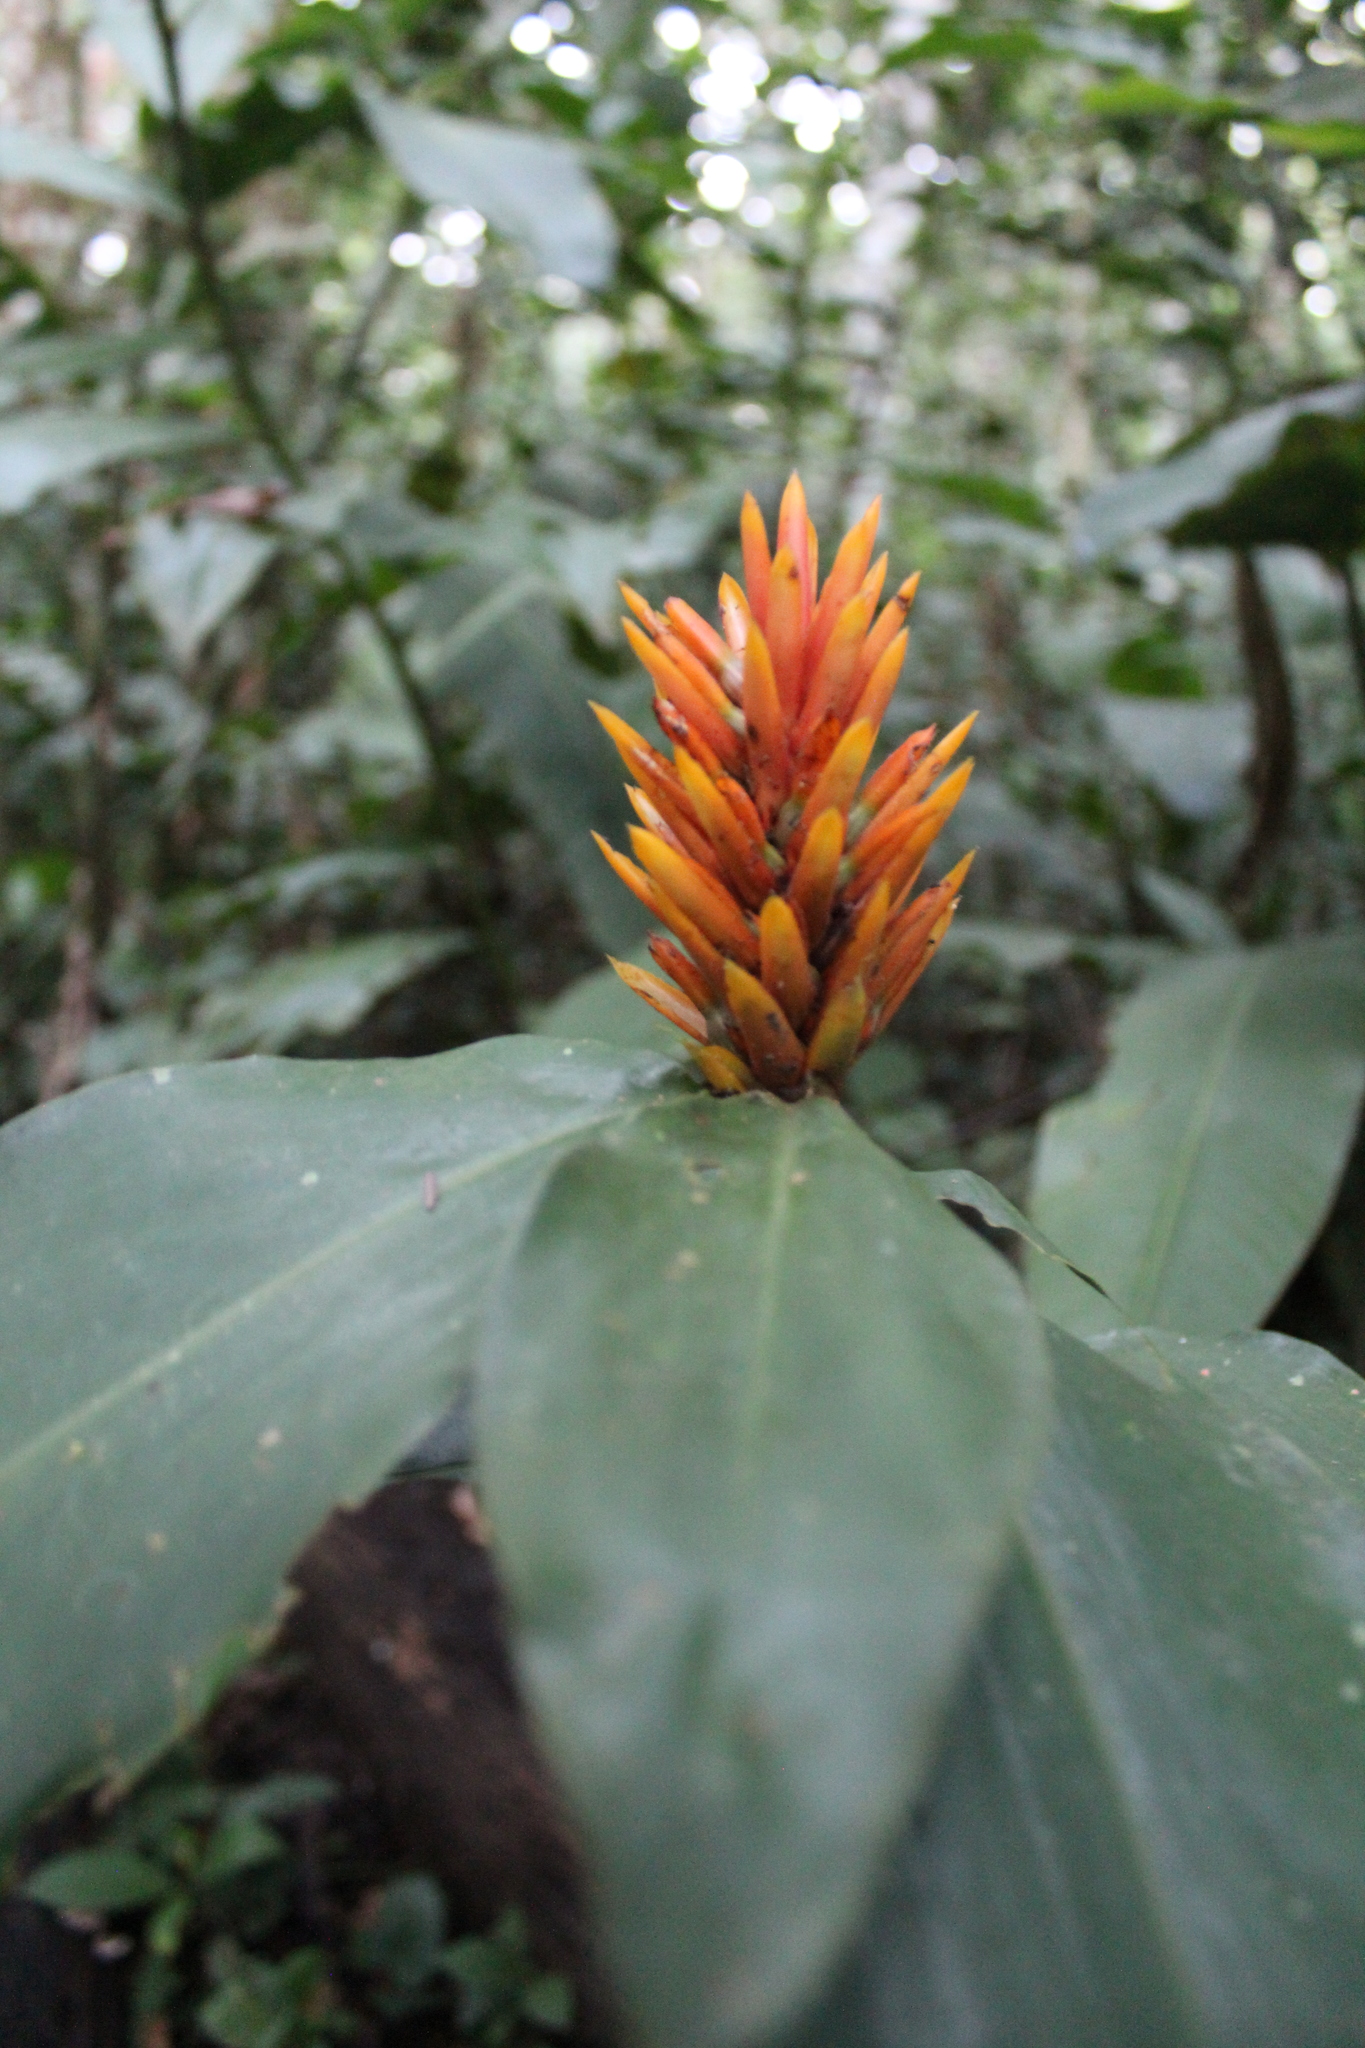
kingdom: Plantae
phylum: Tracheophyta
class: Liliopsida
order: Zingiberales
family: Zingiberaceae
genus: Renealmia
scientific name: Renealmia cernua
